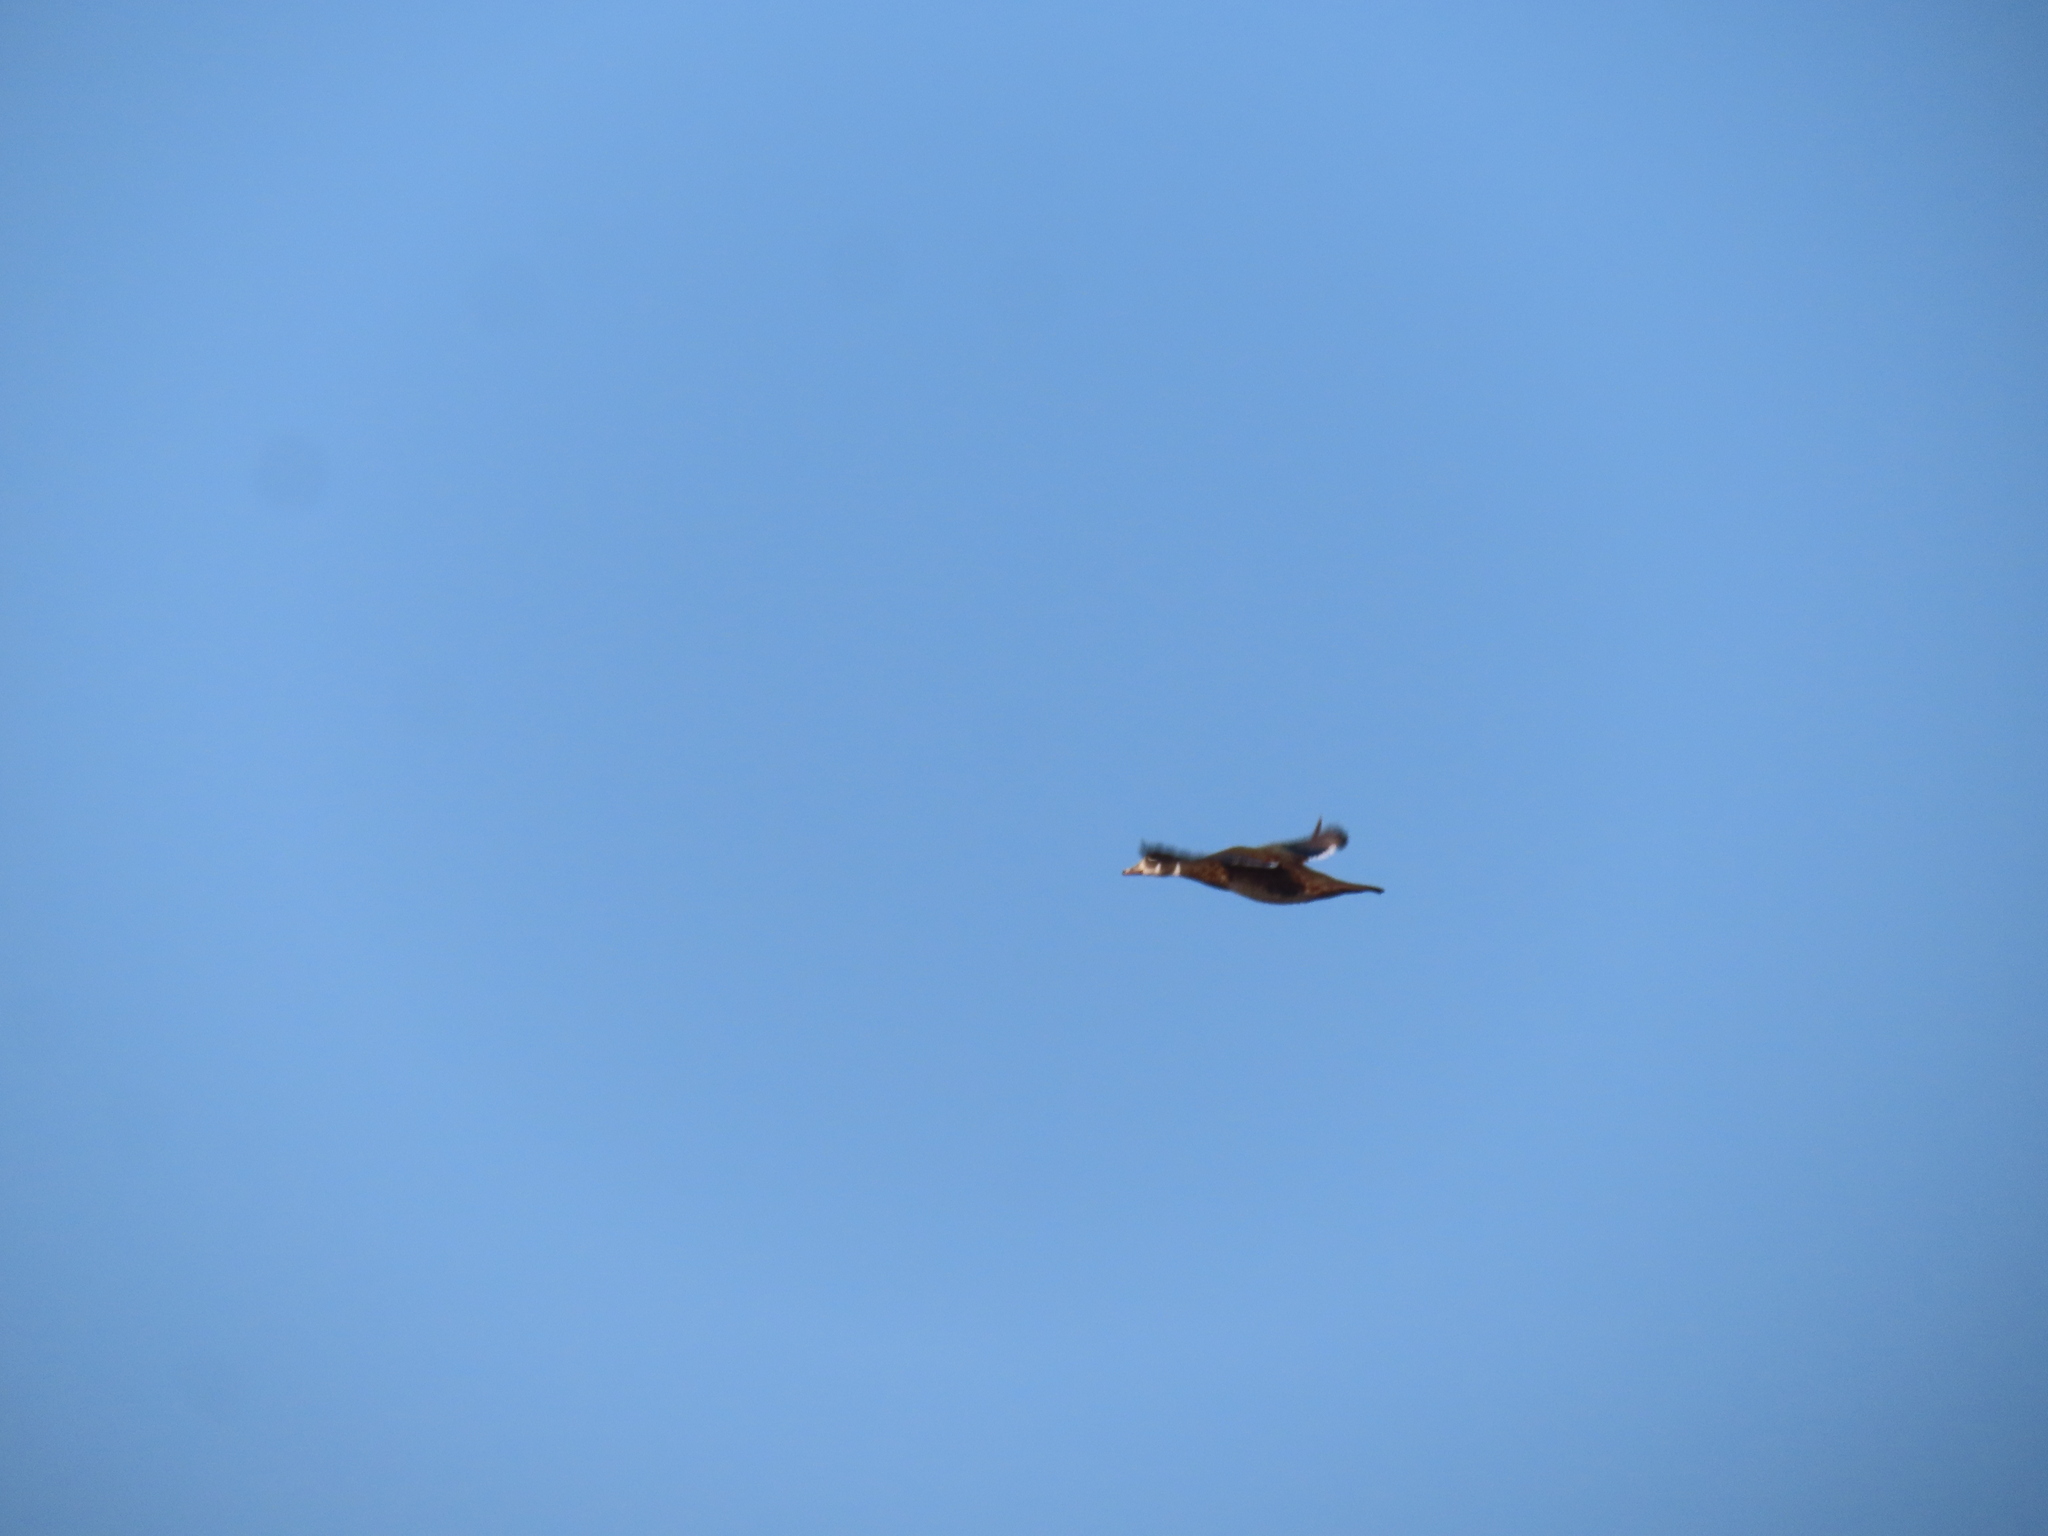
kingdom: Animalia
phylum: Chordata
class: Aves
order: Anseriformes
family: Anatidae
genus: Aix
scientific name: Aix sponsa
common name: Wood duck
